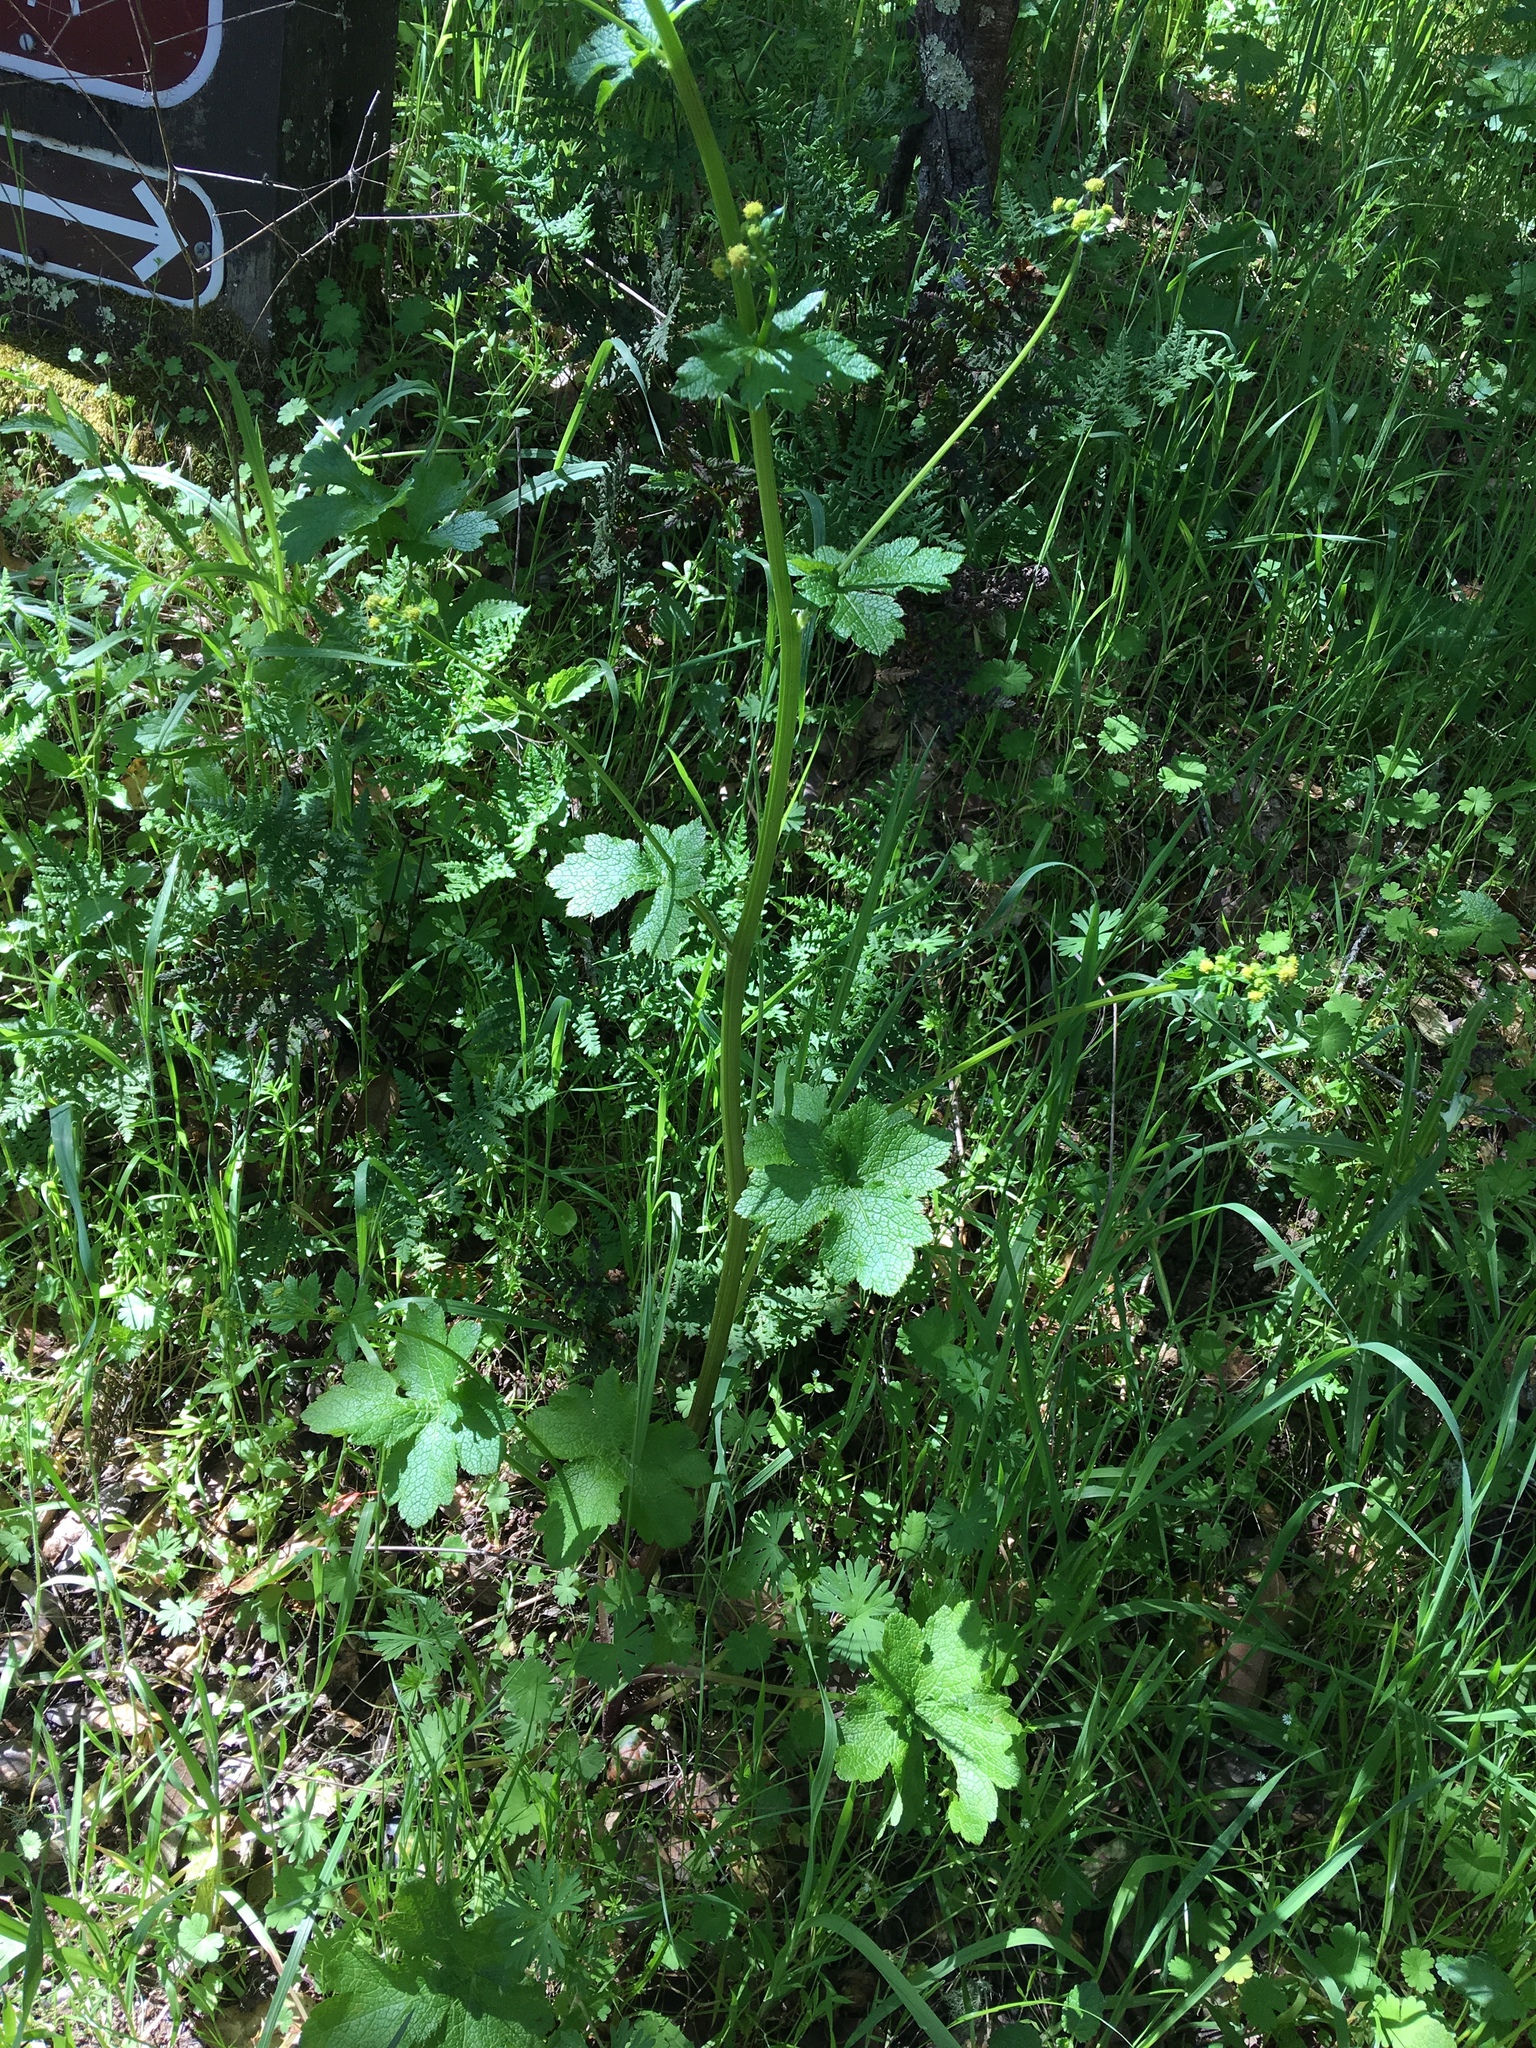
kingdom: Plantae
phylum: Tracheophyta
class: Magnoliopsida
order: Apiales
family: Apiaceae
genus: Sanicula
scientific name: Sanicula crassicaulis
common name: Western snakeroot
